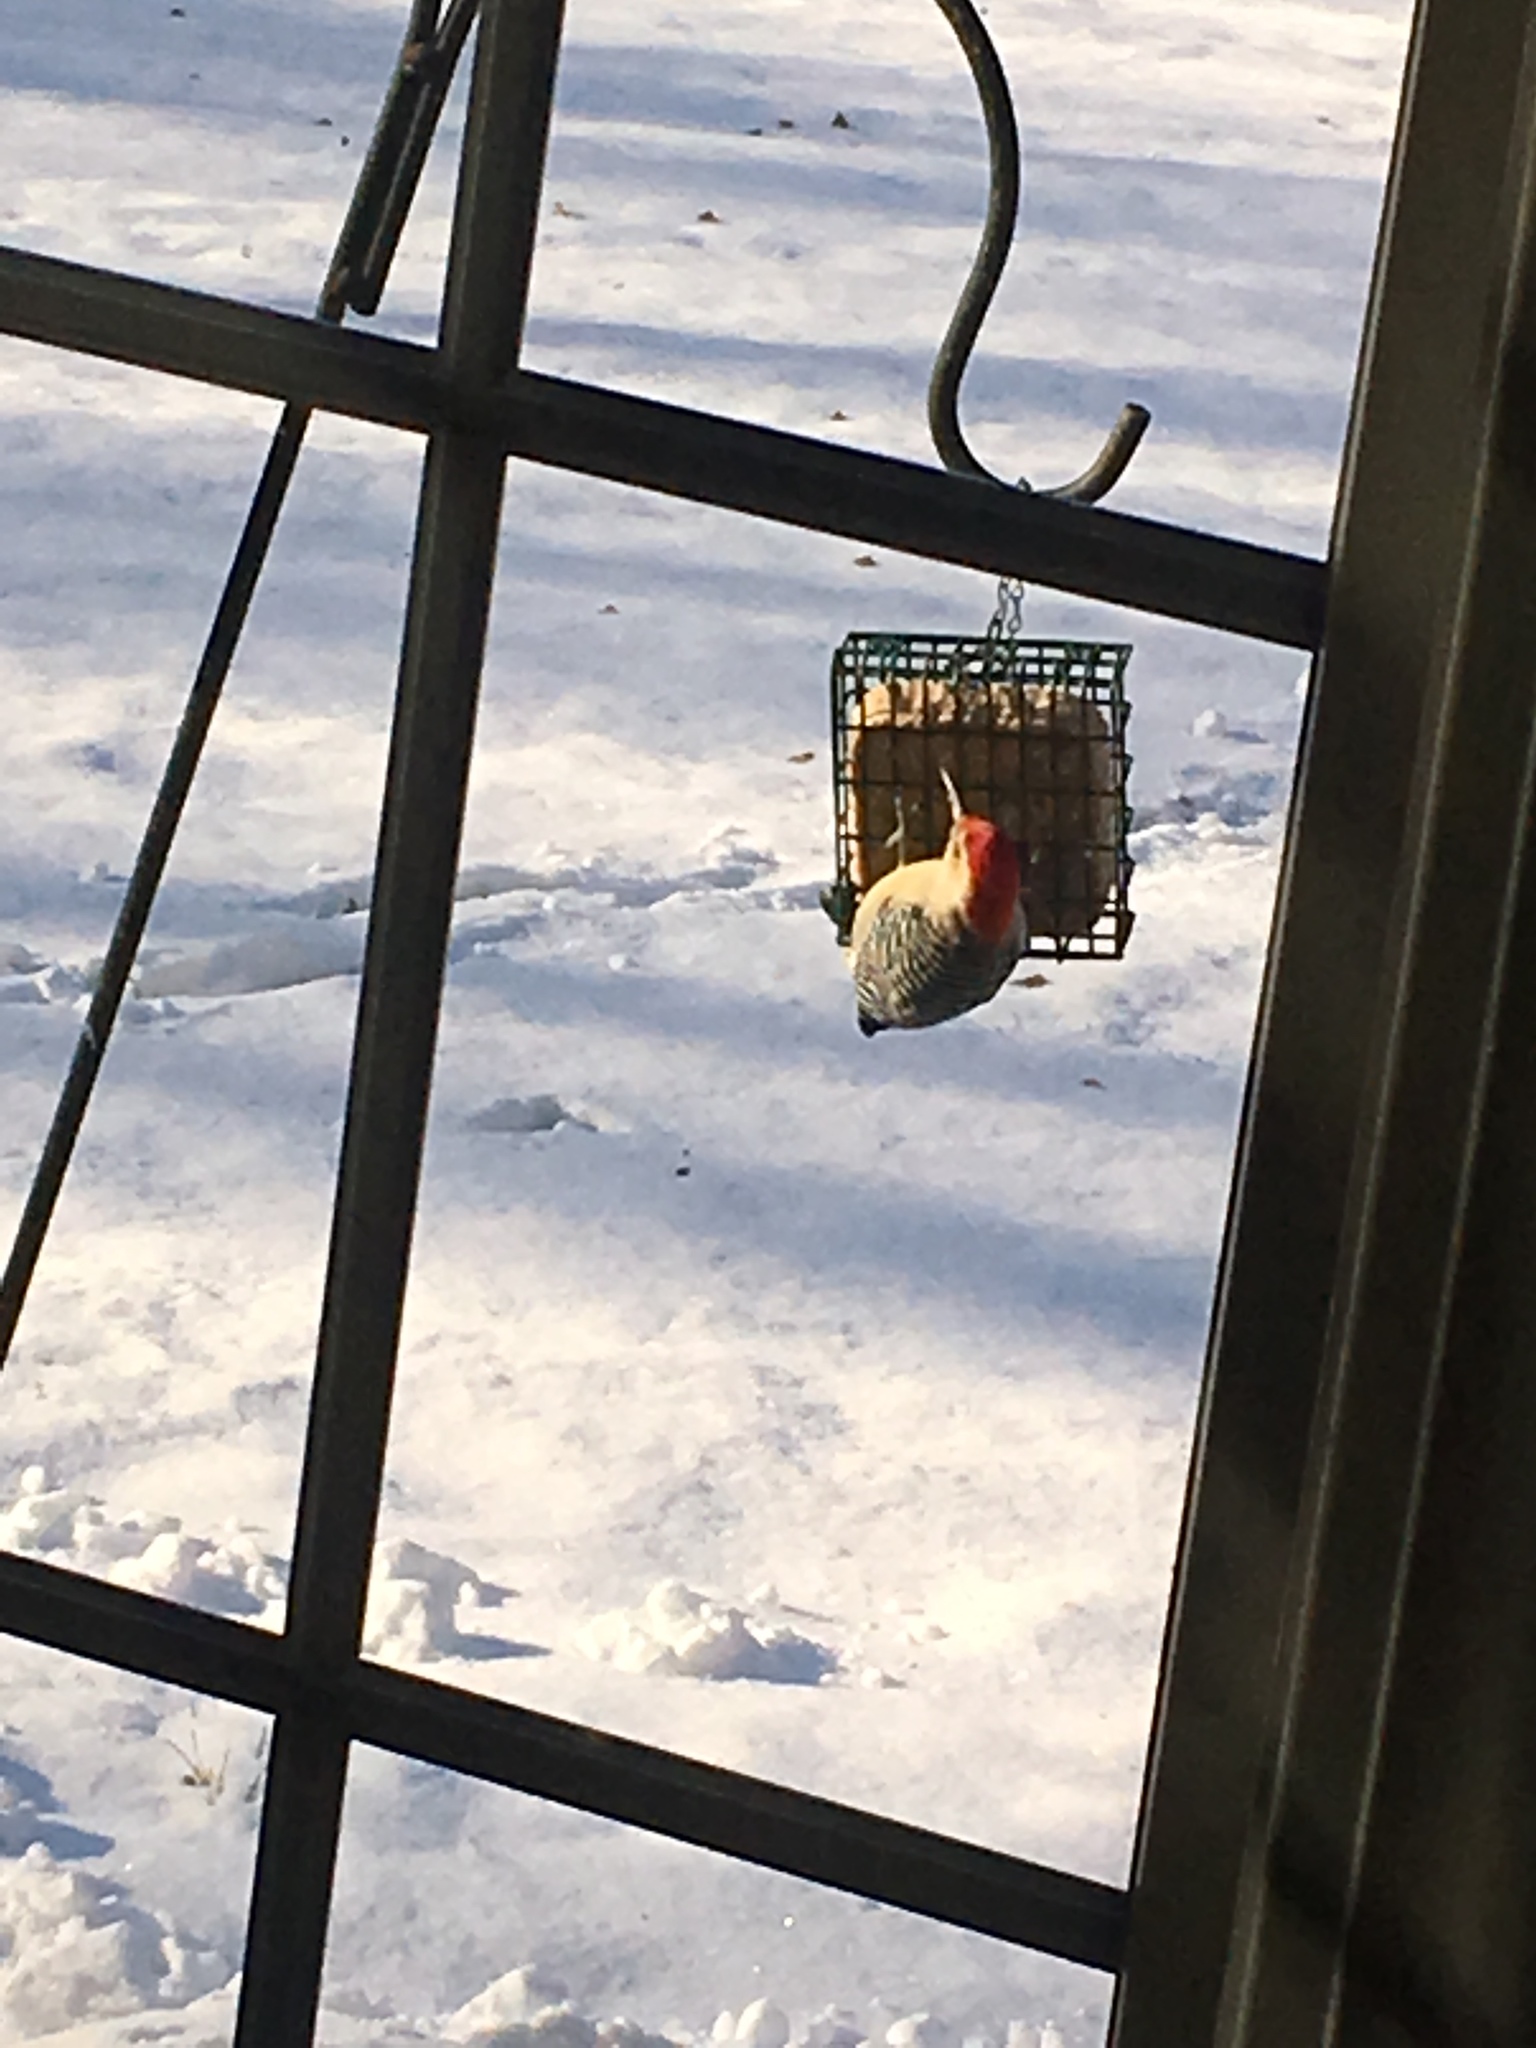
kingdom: Animalia
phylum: Chordata
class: Aves
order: Piciformes
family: Picidae
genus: Melanerpes
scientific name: Melanerpes carolinus
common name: Red-bellied woodpecker
